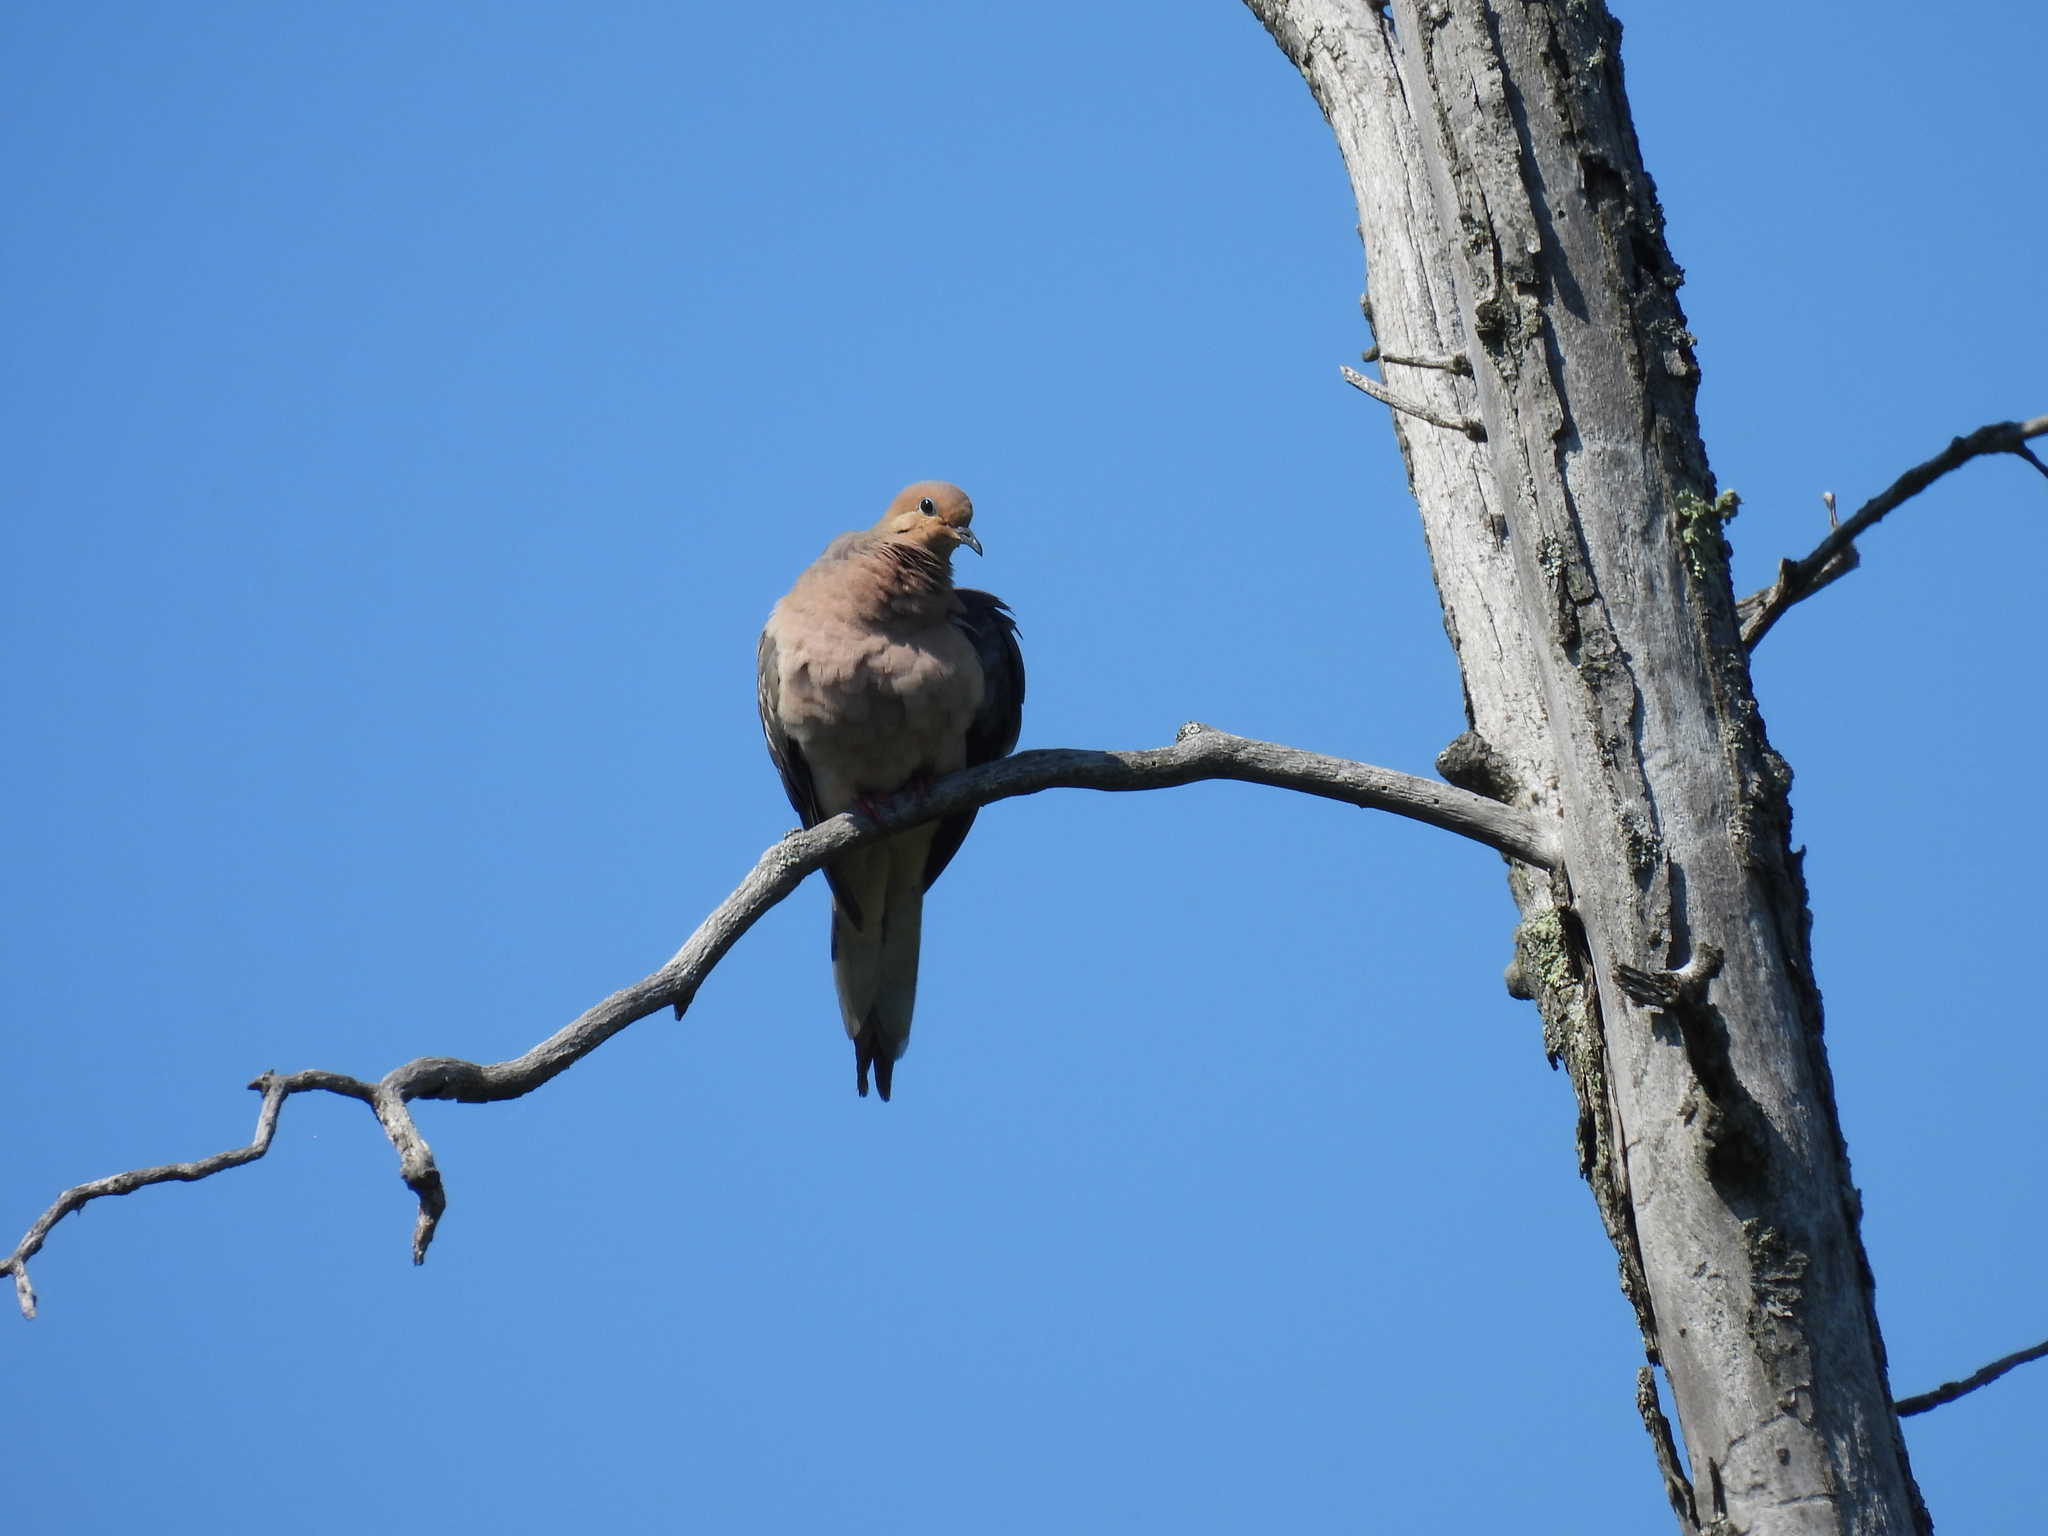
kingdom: Animalia
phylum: Chordata
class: Aves
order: Columbiformes
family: Columbidae
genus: Zenaida
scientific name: Zenaida macroura
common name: Mourning dove
